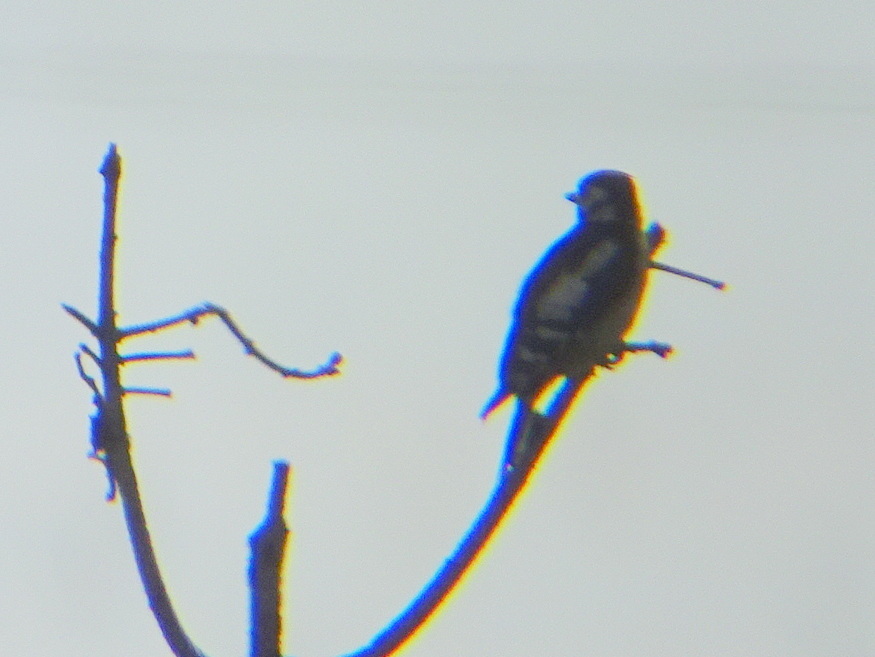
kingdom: Animalia
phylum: Chordata
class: Aves
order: Piciformes
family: Picidae
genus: Dendrocopos
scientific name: Dendrocopos major
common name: Great spotted woodpecker
